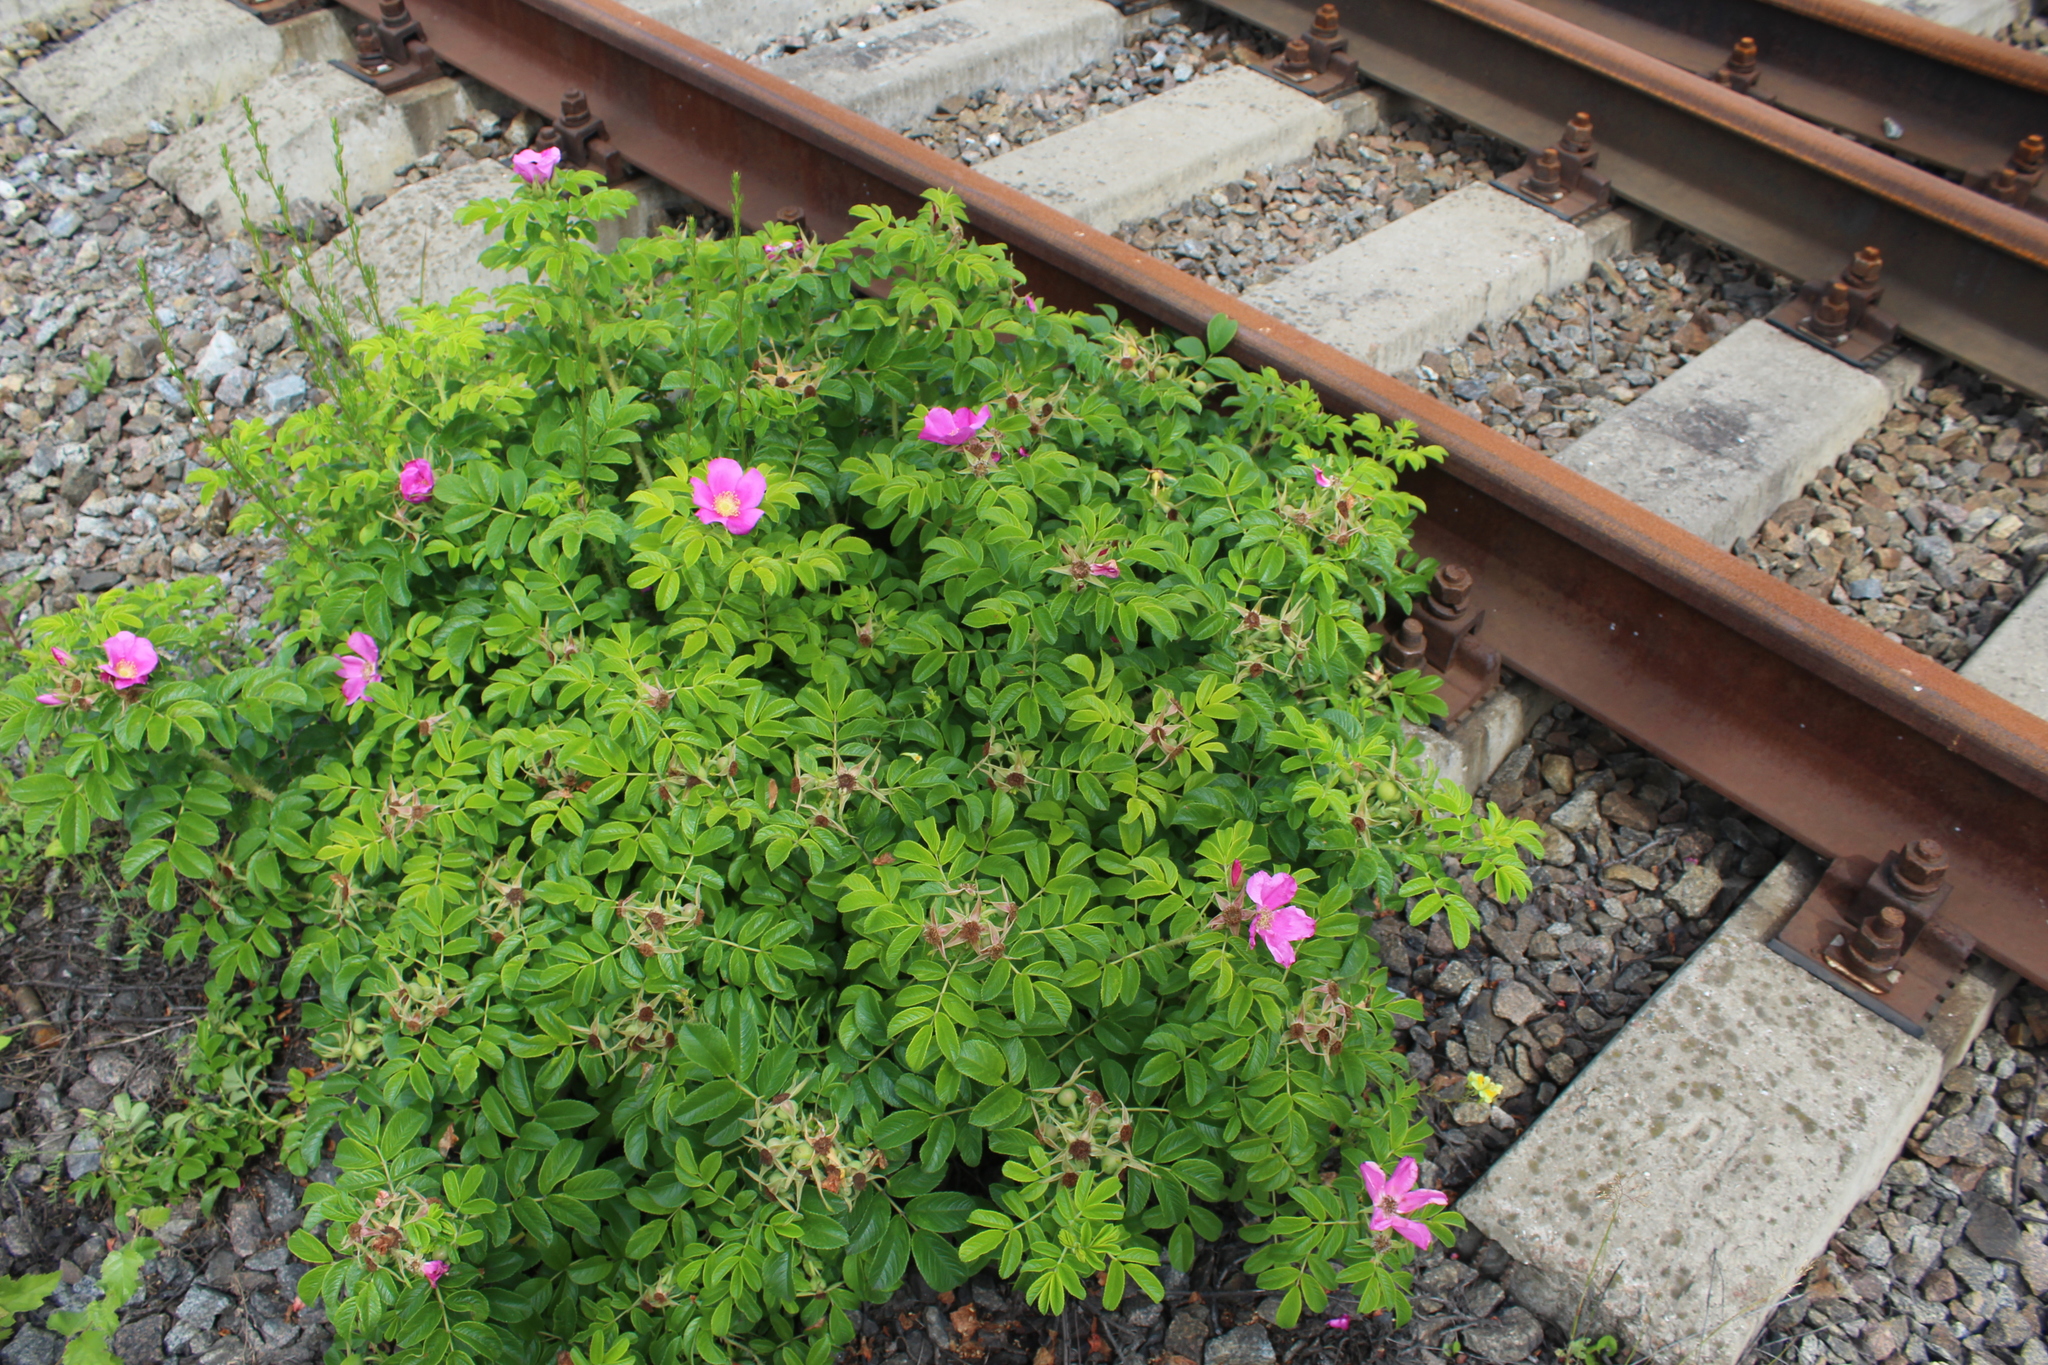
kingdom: Plantae
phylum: Tracheophyta
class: Magnoliopsida
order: Rosales
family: Rosaceae
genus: Rosa
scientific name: Rosa rugosa
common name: Japanese rose
